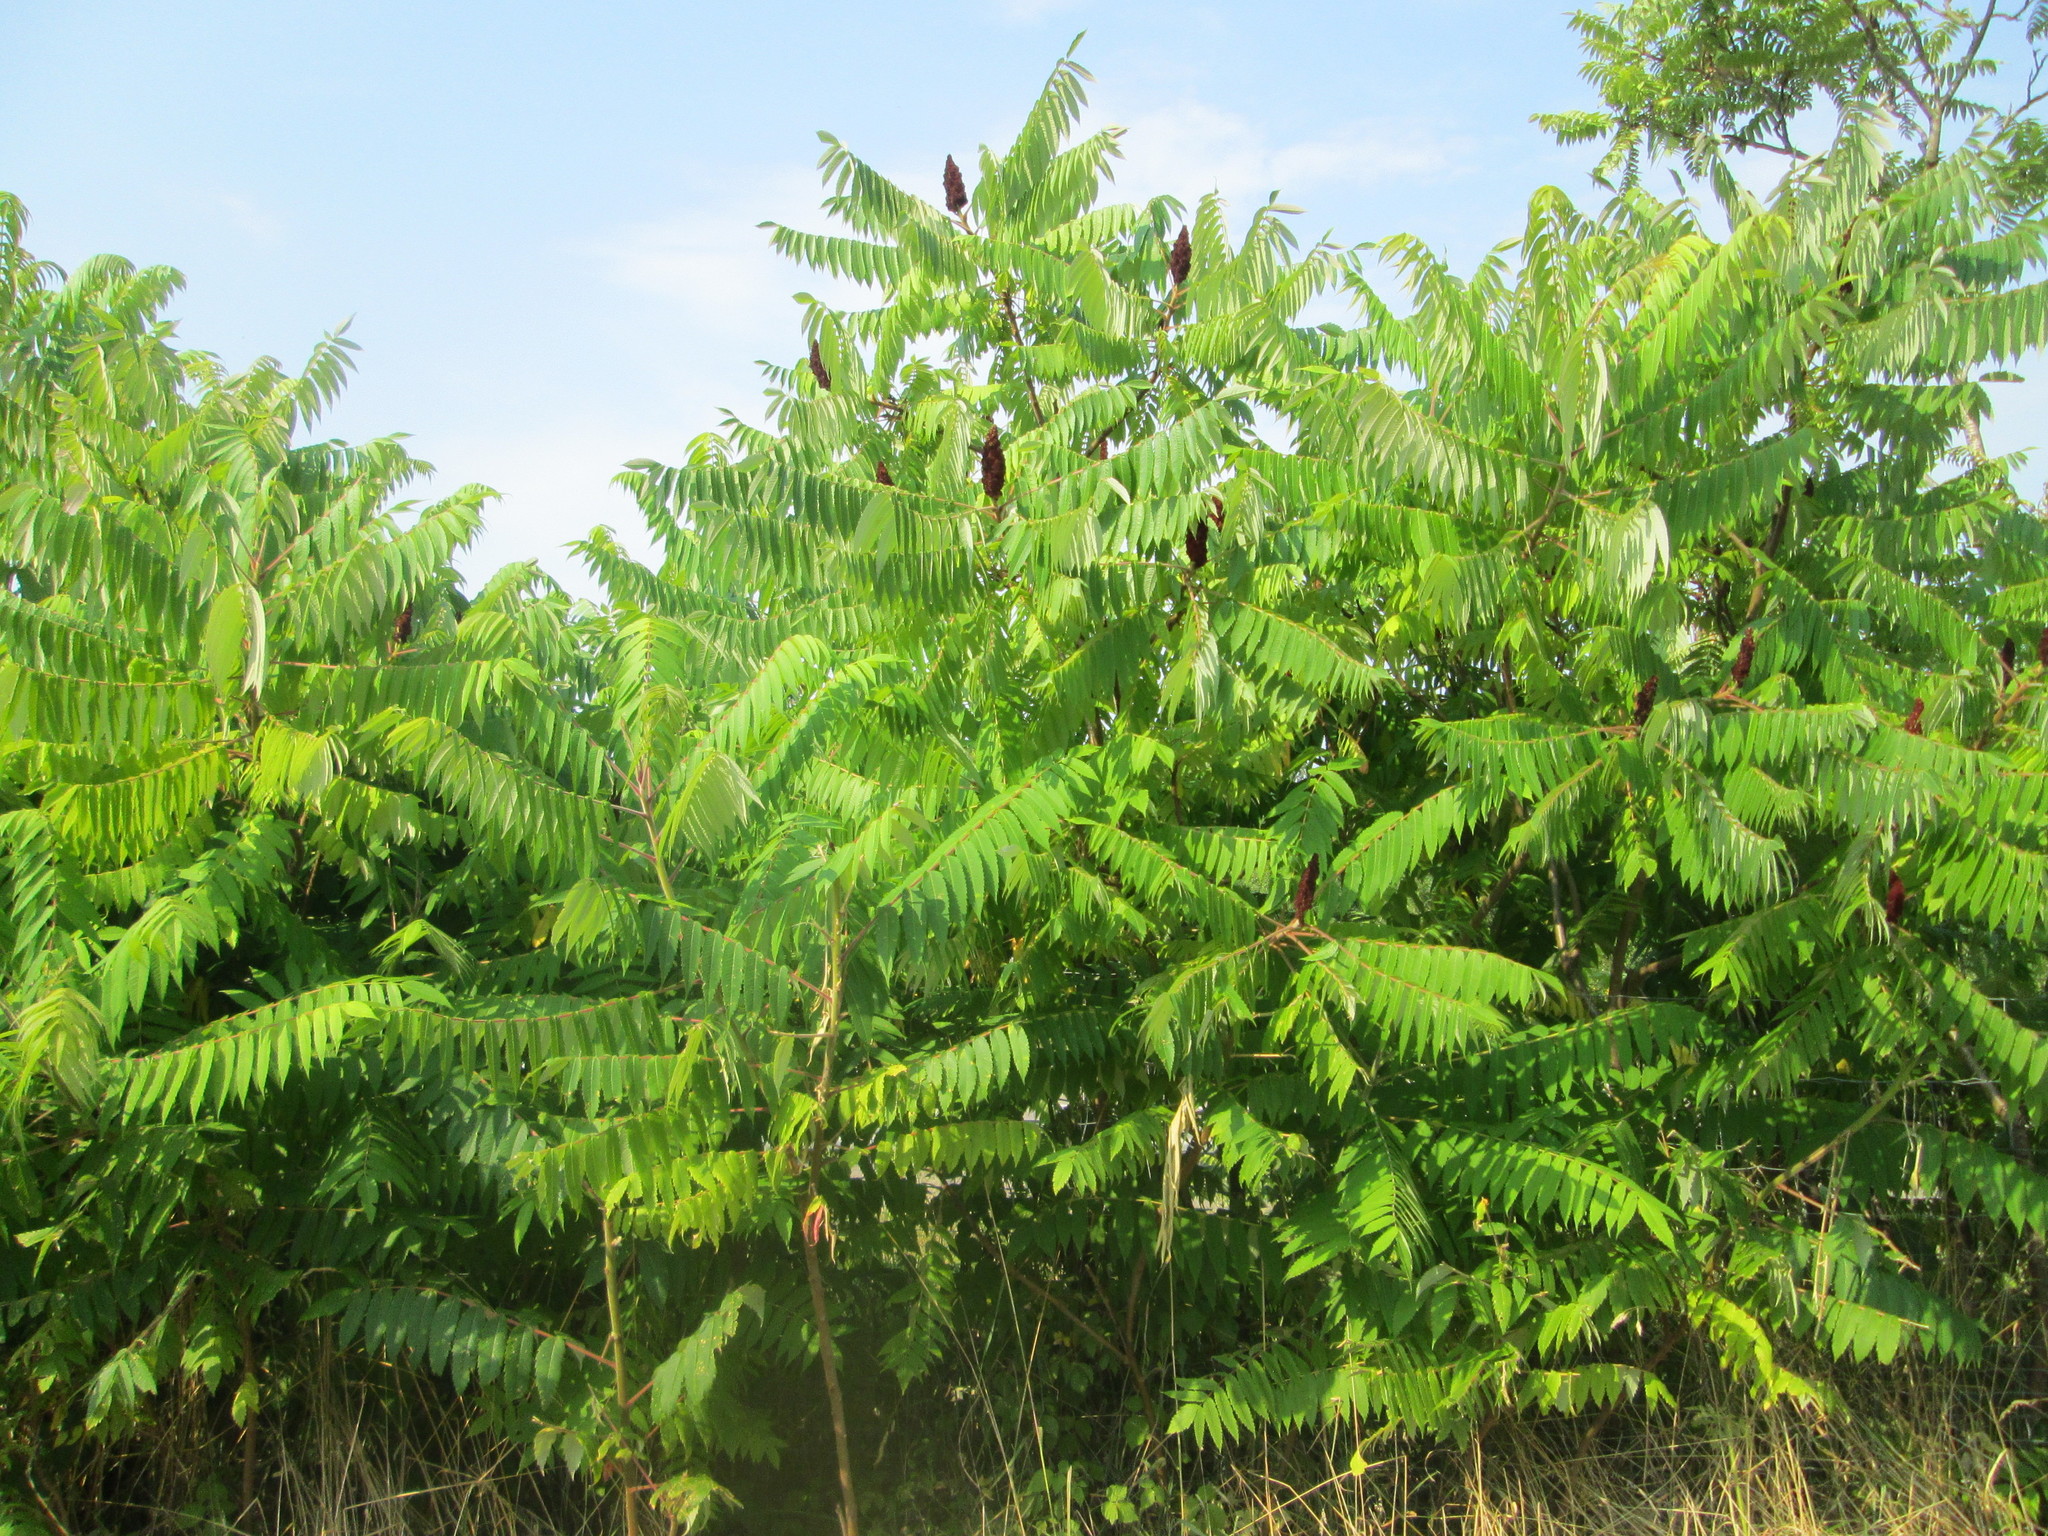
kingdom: Plantae
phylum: Tracheophyta
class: Magnoliopsida
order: Sapindales
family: Anacardiaceae
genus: Rhus
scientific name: Rhus typhina
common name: Staghorn sumac
